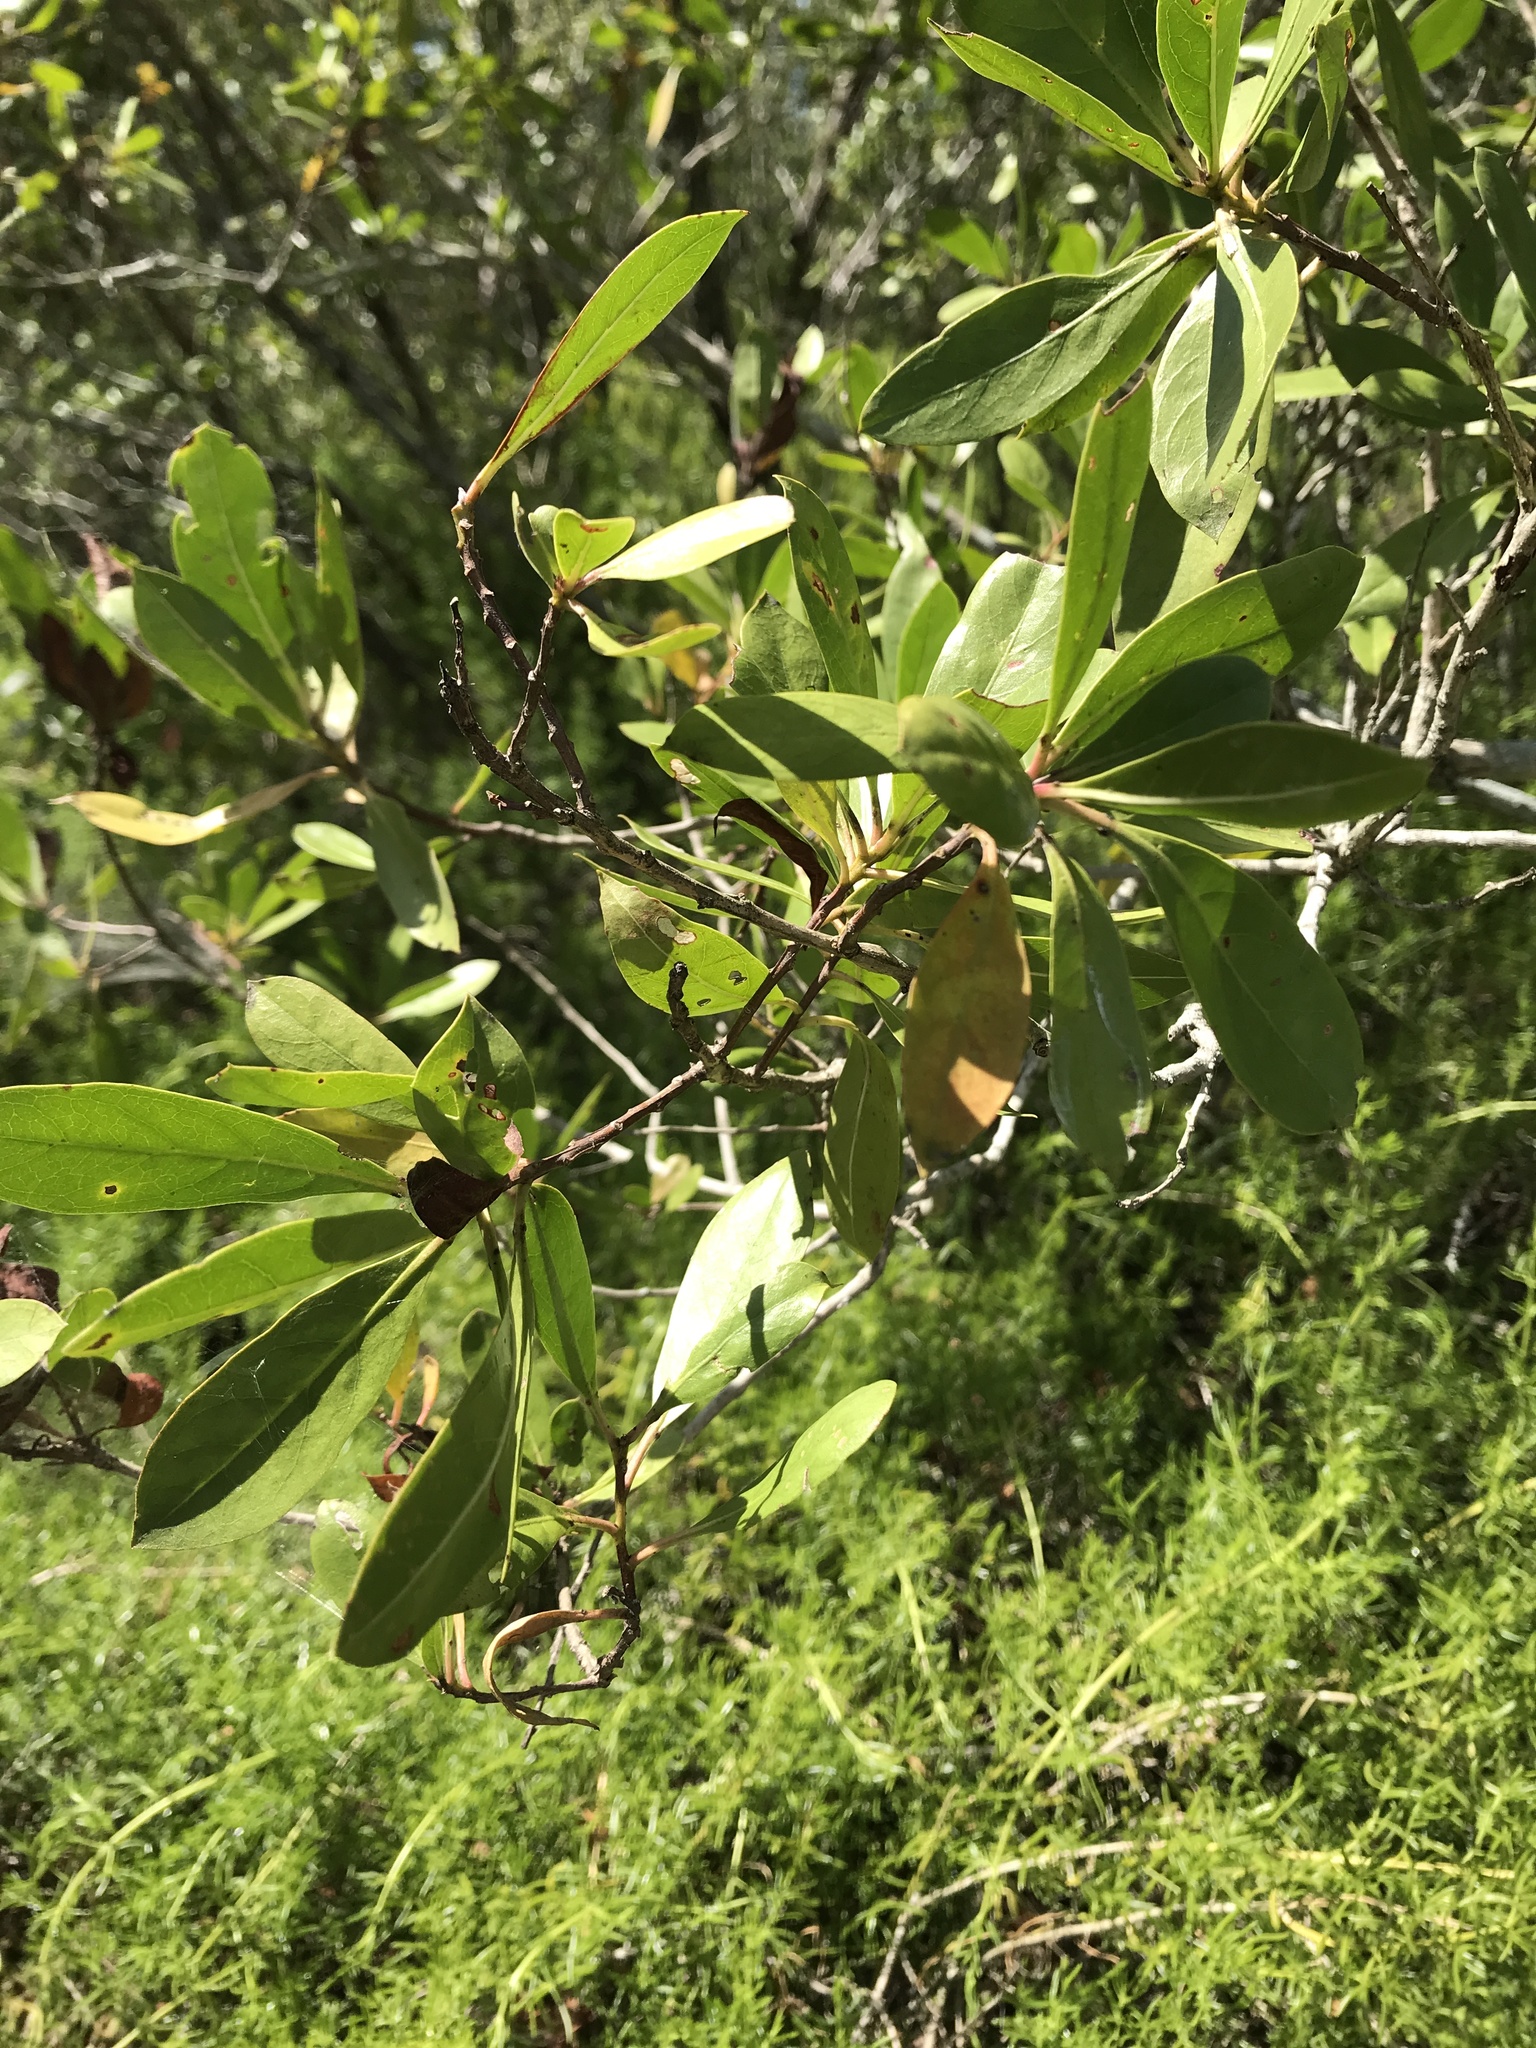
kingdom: Plantae
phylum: Tracheophyta
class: Magnoliopsida
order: Myrtales
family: Combretaceae
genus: Conocarpus
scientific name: Conocarpus erectus
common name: Button mangrove
